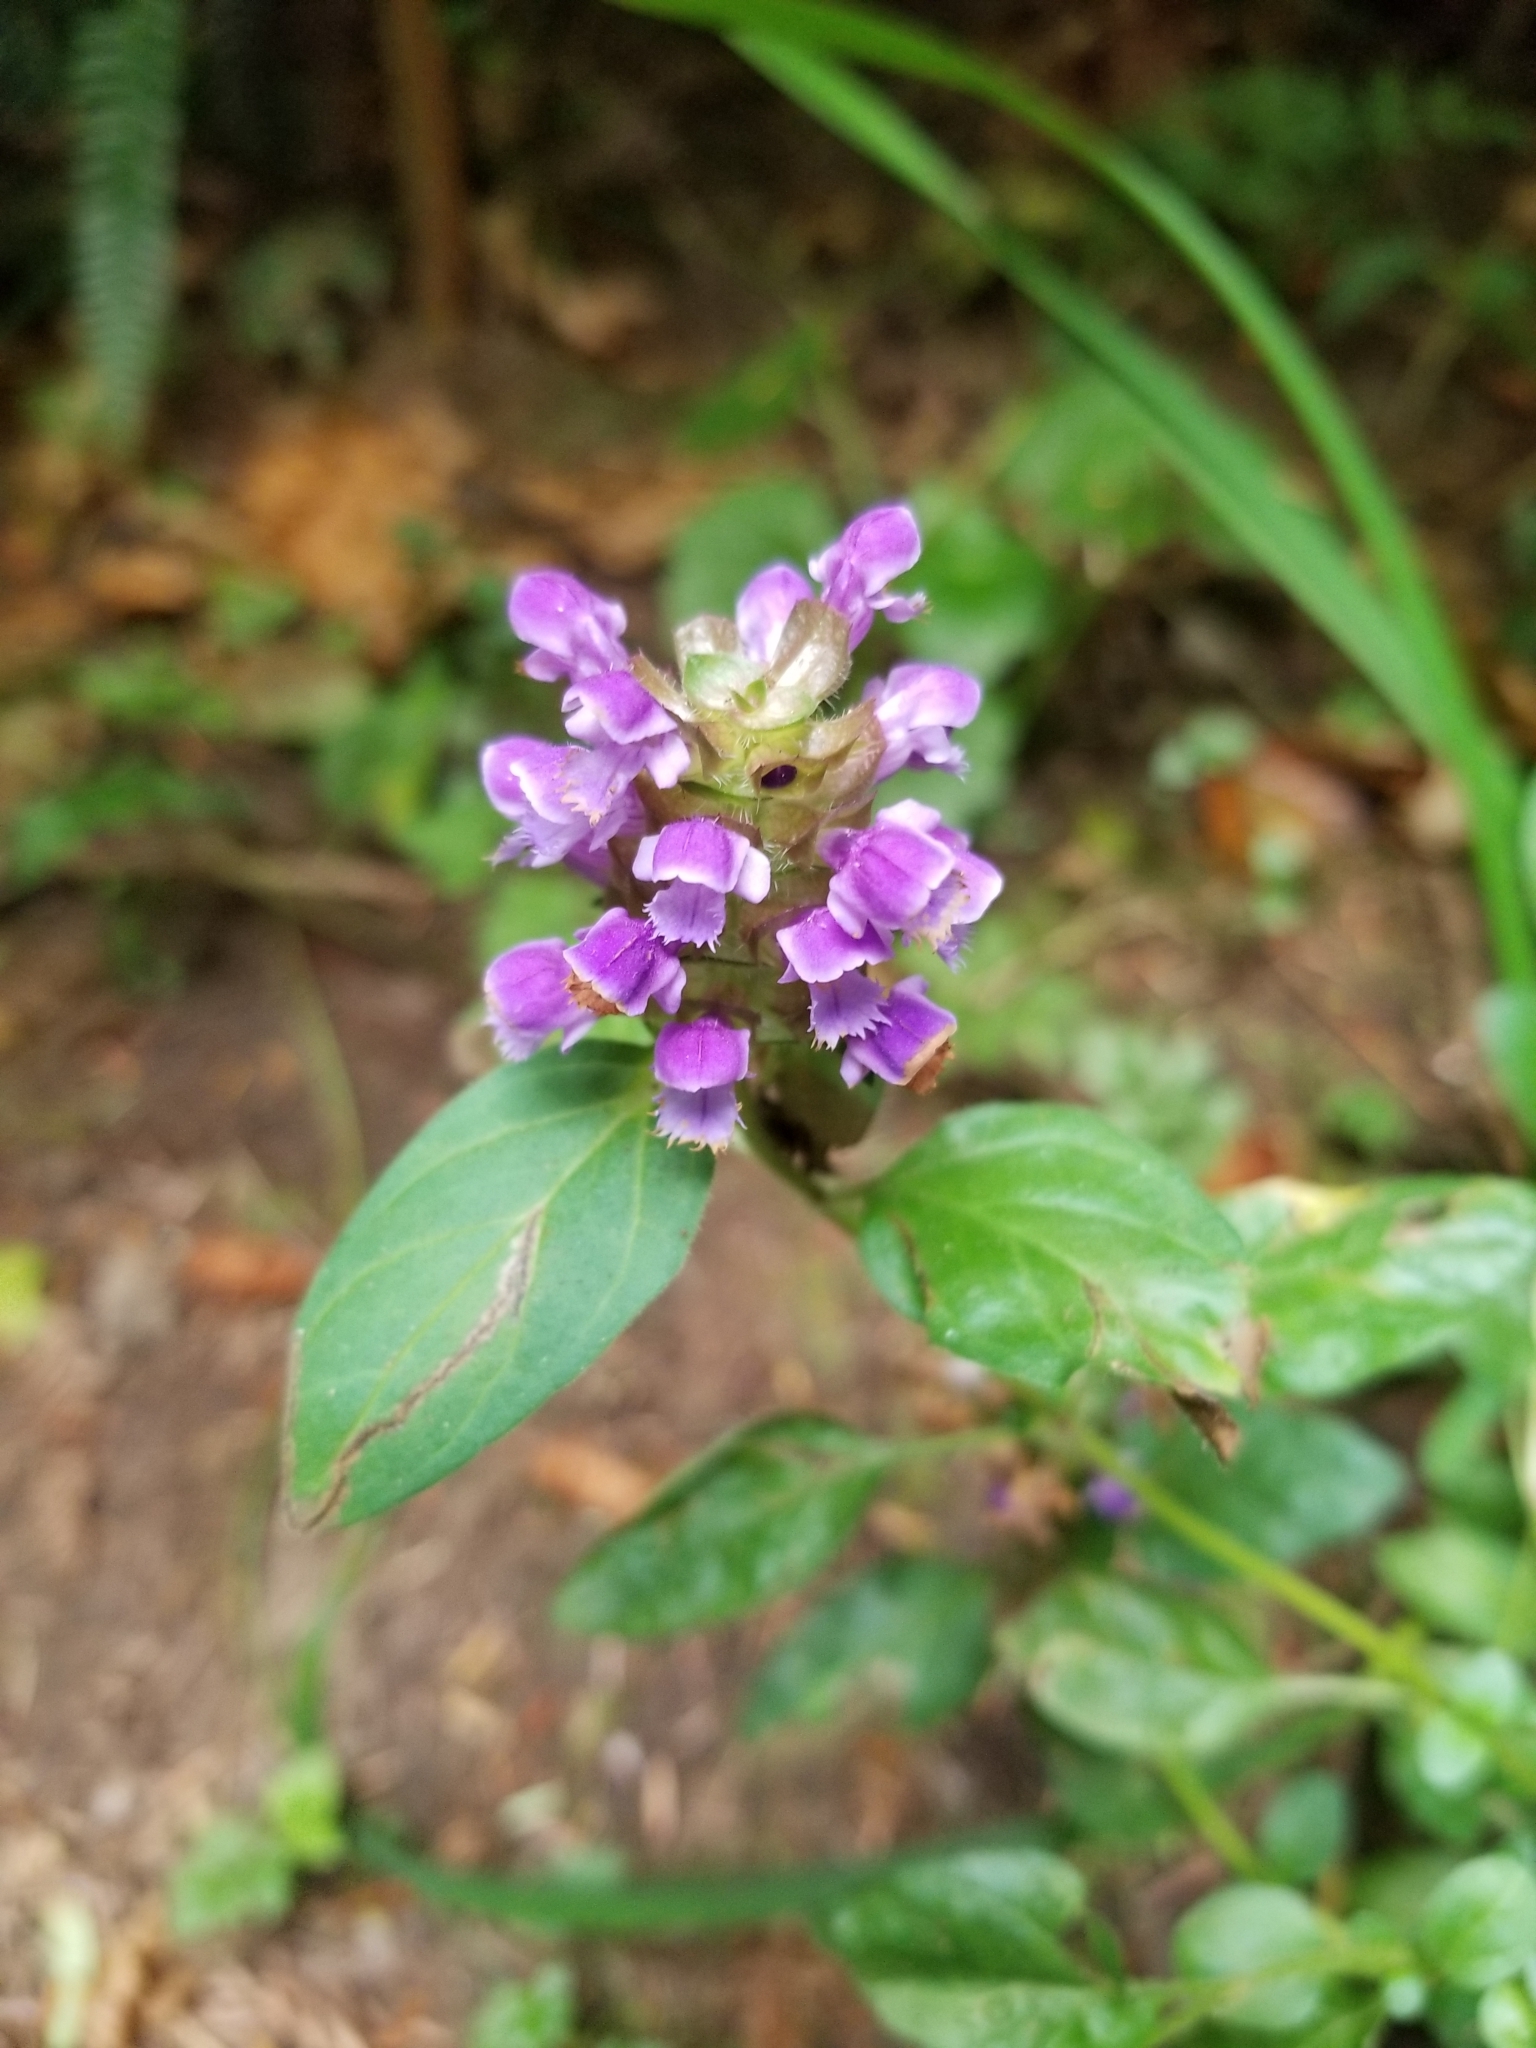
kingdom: Plantae
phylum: Tracheophyta
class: Magnoliopsida
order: Lamiales
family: Lamiaceae
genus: Prunella
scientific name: Prunella vulgaris
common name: Heal-all
